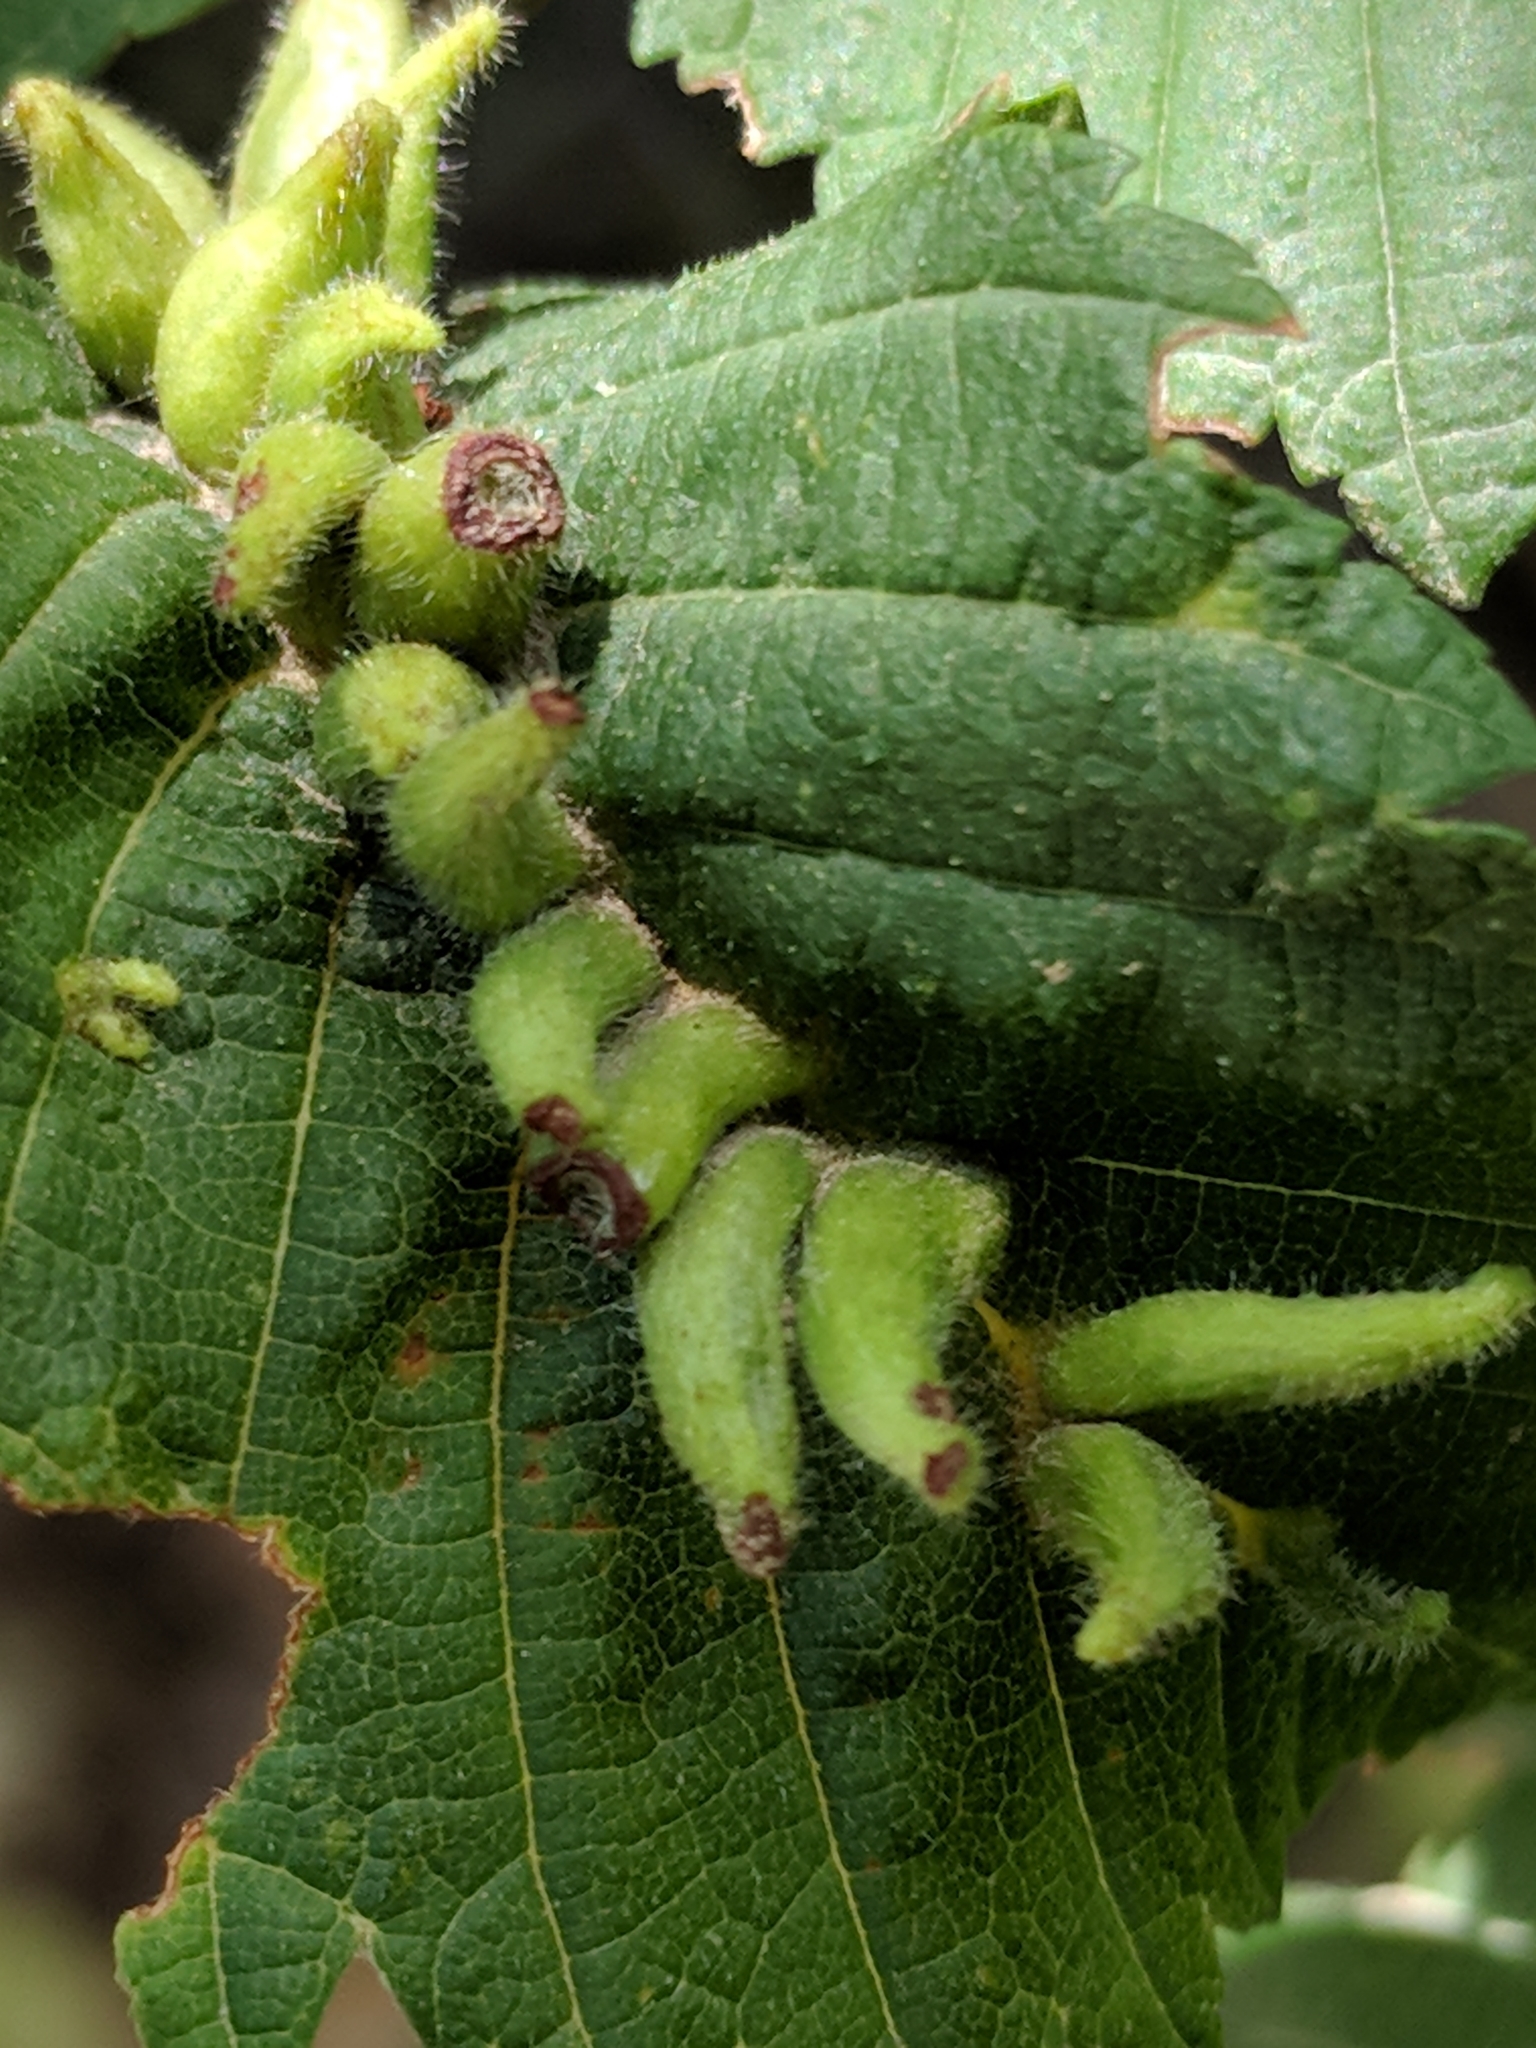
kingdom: Animalia
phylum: Arthropoda
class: Arachnida
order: Trombidiformes
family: Eriophyidae
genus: Aceria
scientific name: Aceria
